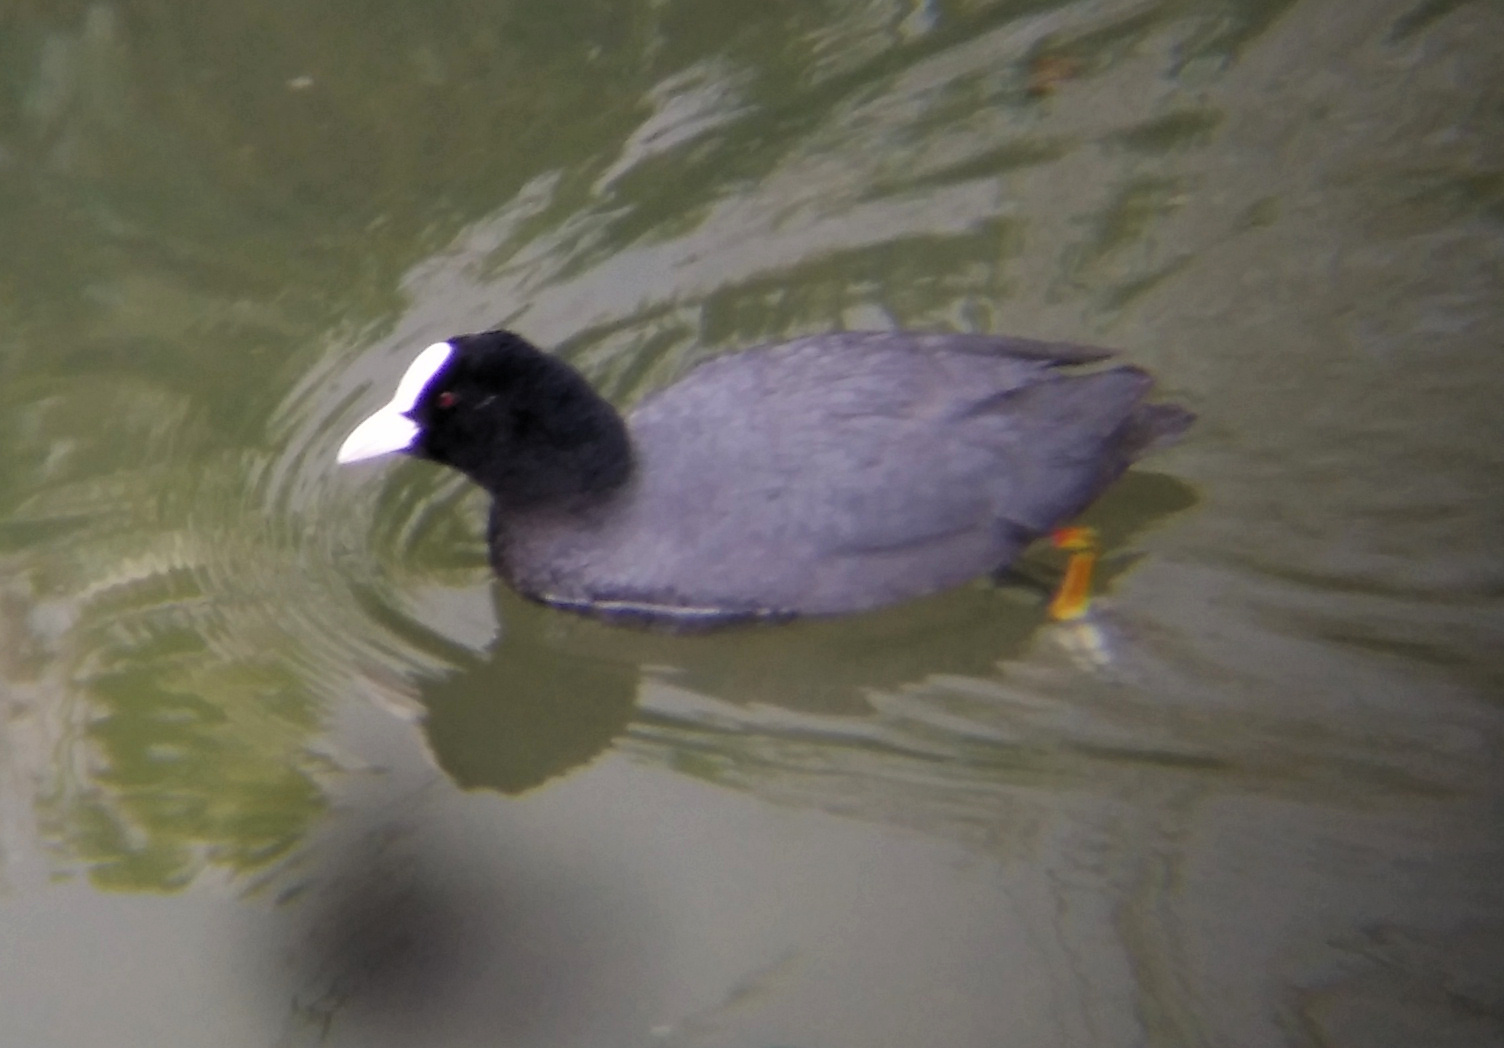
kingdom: Animalia
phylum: Chordata
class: Aves
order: Gruiformes
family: Rallidae
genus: Fulica
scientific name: Fulica atra
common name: Eurasian coot
